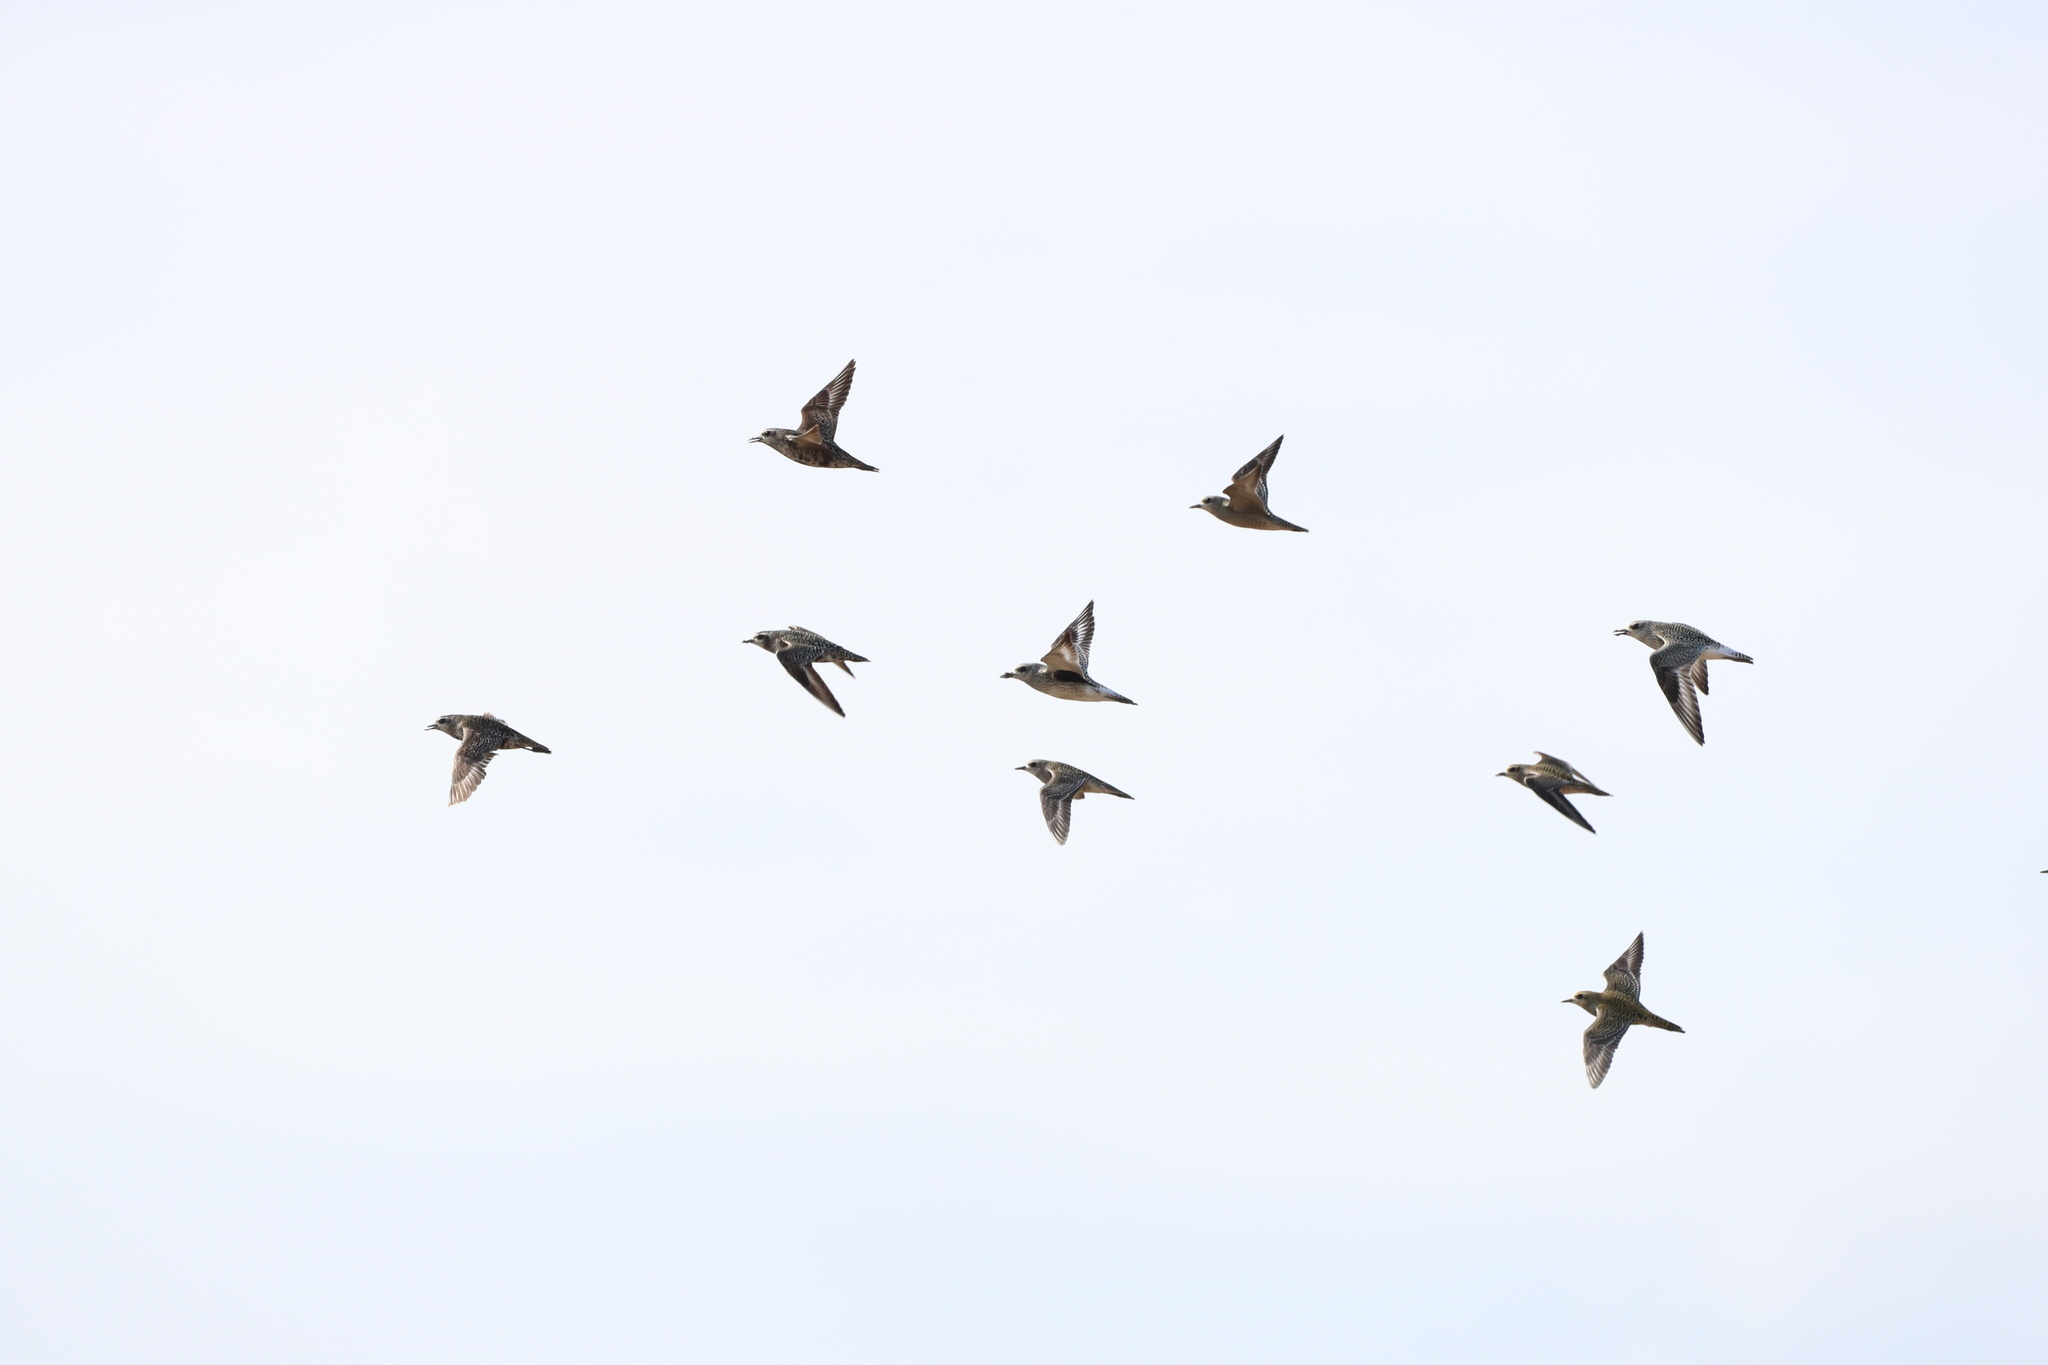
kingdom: Animalia
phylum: Chordata
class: Aves
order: Charadriiformes
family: Charadriidae
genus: Pluvialis
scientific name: Pluvialis dominica
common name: American golden plover
